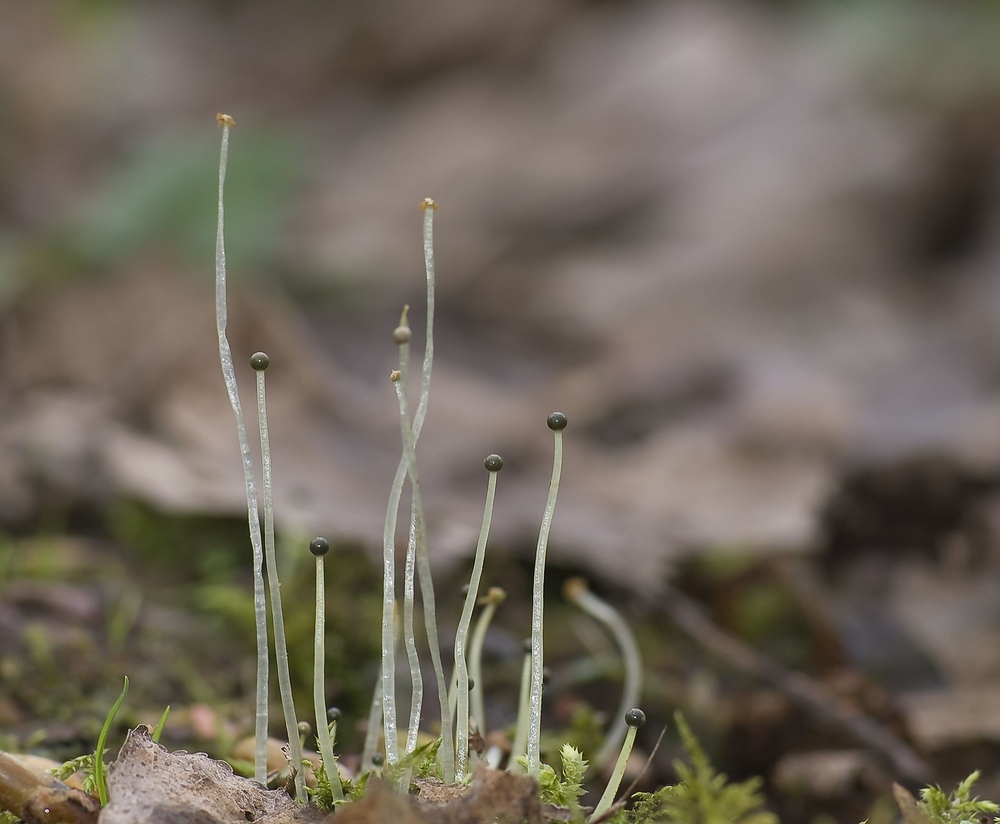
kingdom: Plantae
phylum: Marchantiophyta
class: Jungermanniopsida
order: Pelliales
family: Pelliaceae
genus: Pellia
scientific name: Pellia epiphylla
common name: Common pellia
